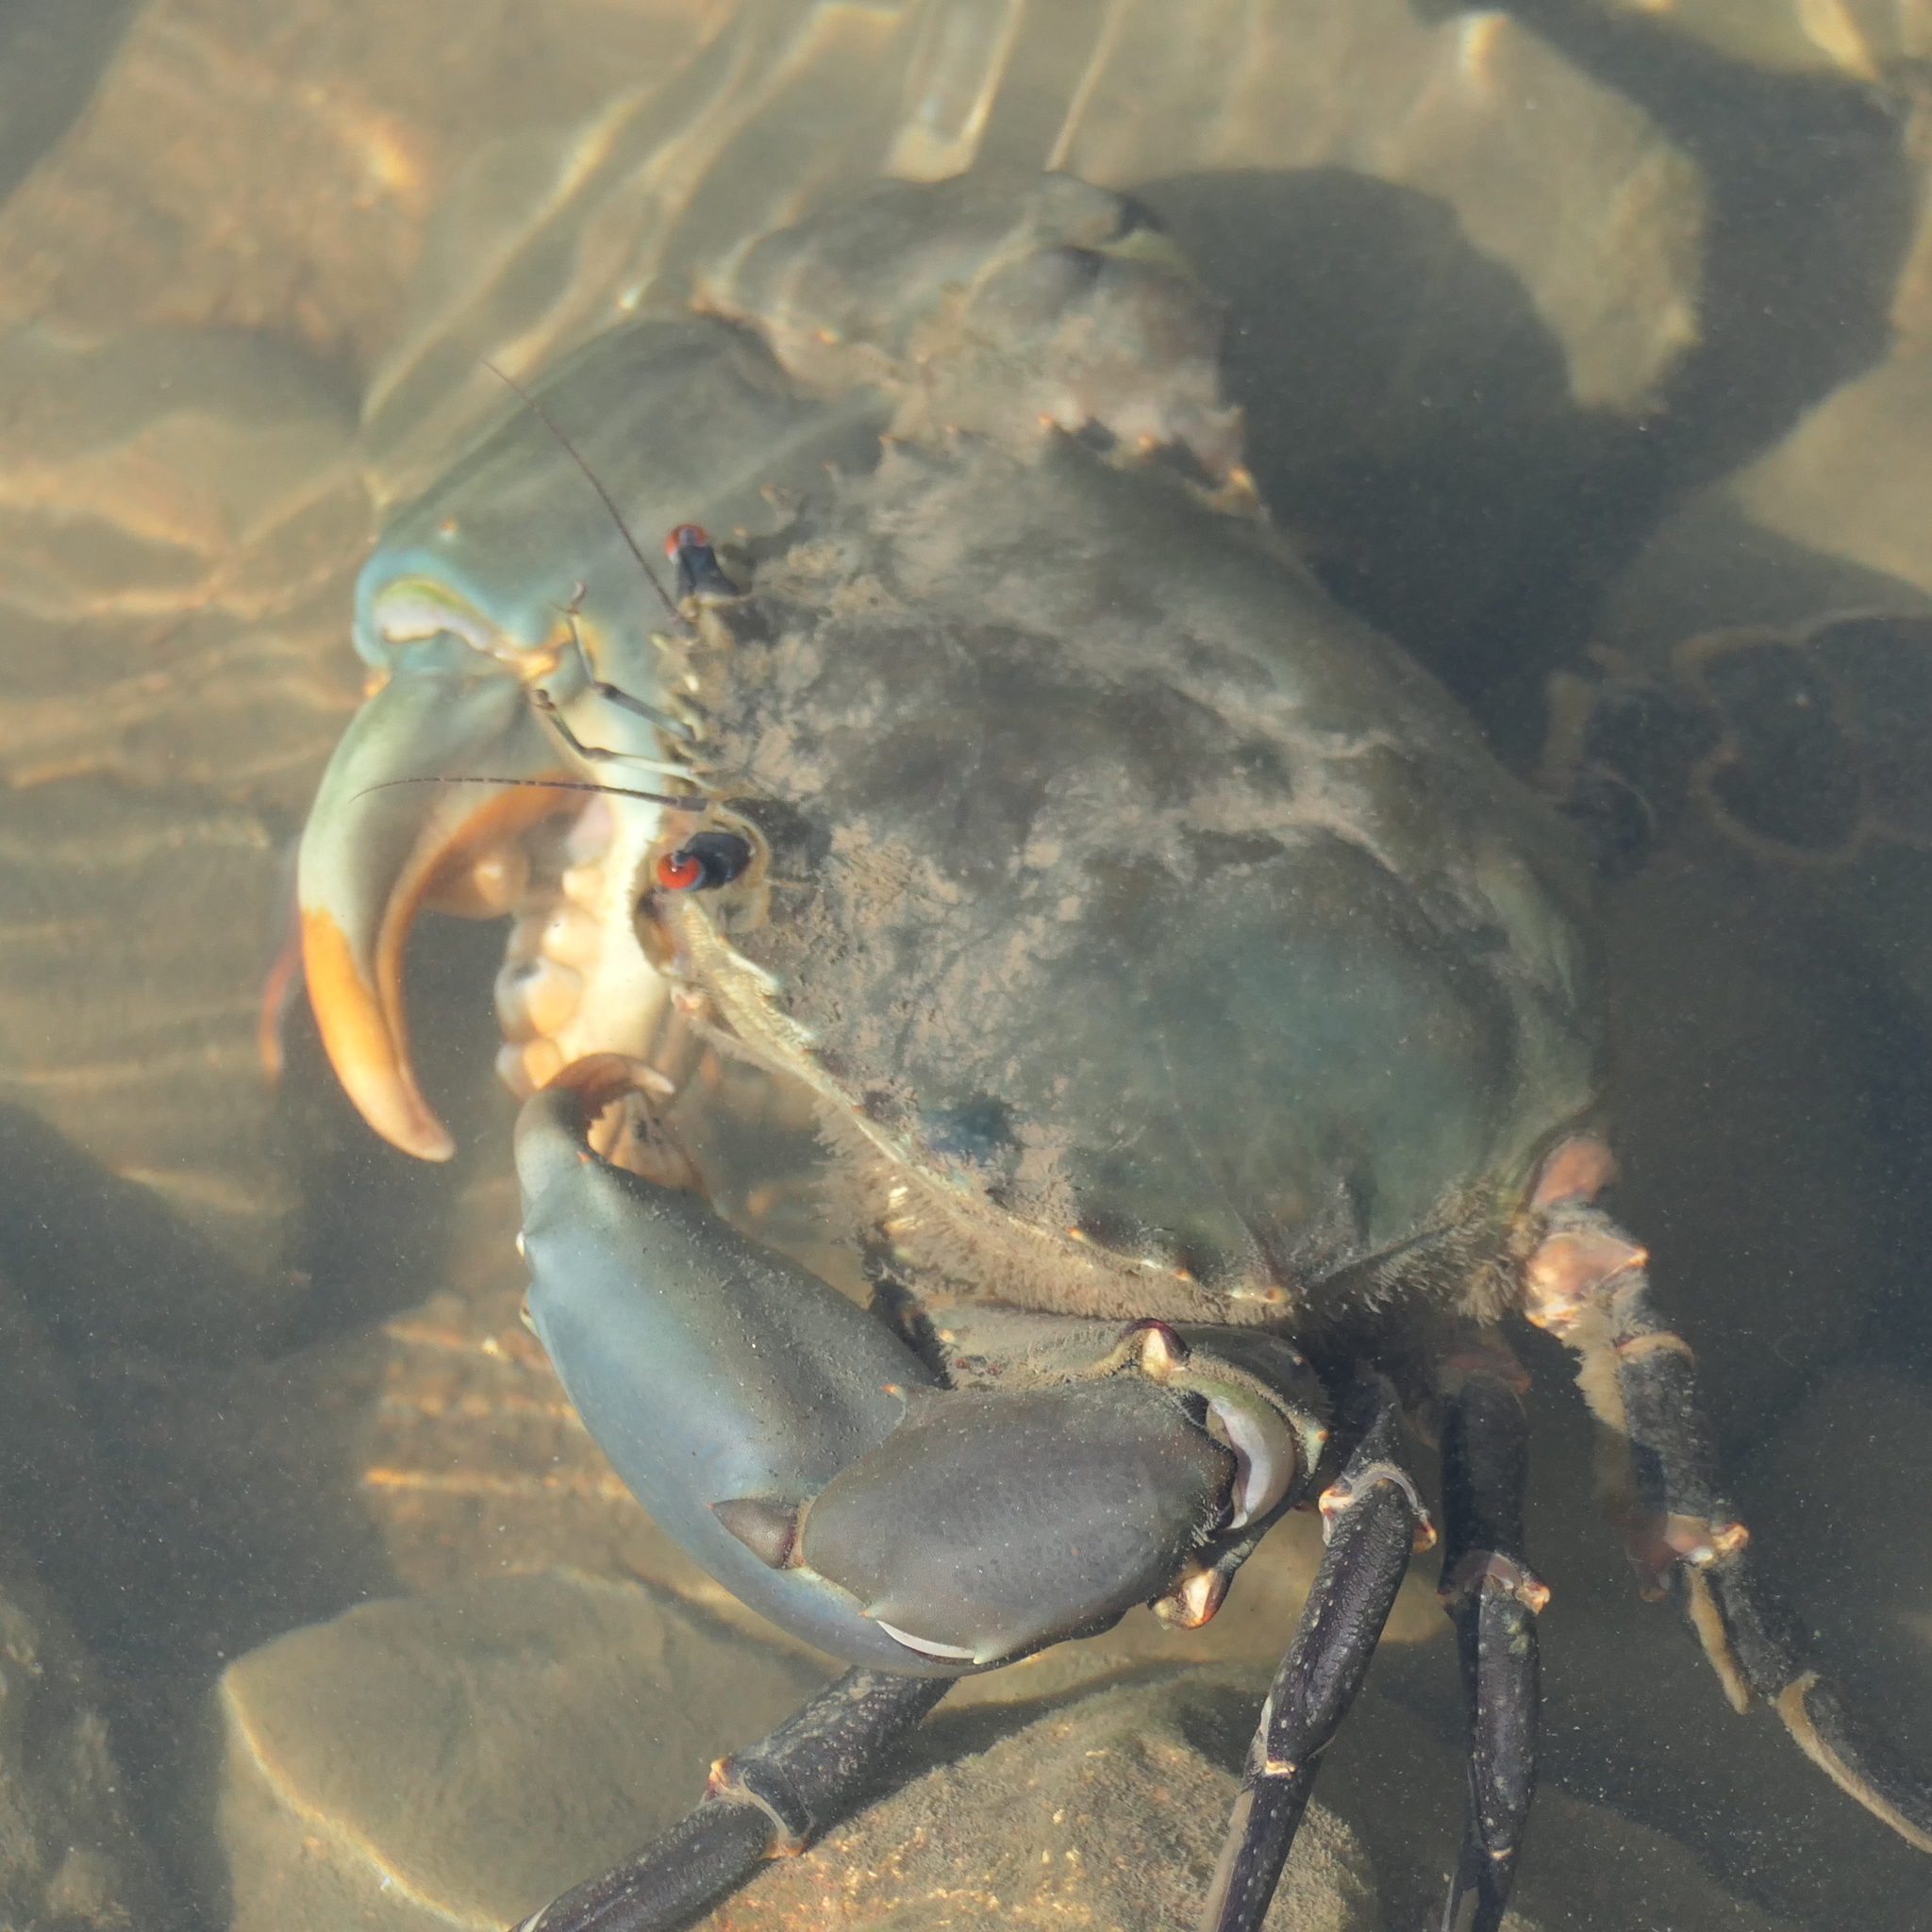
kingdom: Animalia
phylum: Arthropoda
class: Malacostraca
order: Decapoda
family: Portunidae
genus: Scylla
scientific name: Scylla serrata
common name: Giant mud crab
